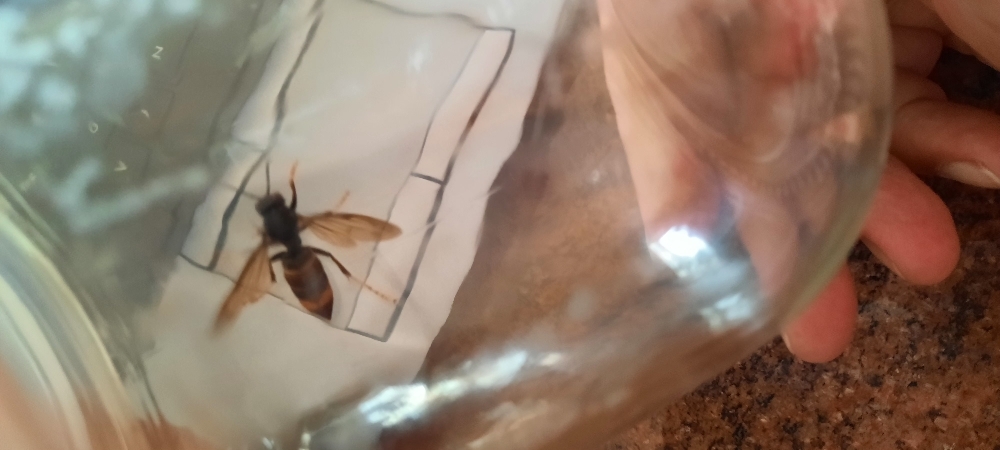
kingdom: Animalia
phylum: Arthropoda
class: Insecta
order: Hymenoptera
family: Vespidae
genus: Vespa
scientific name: Vespa velutina
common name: Asian hornet
